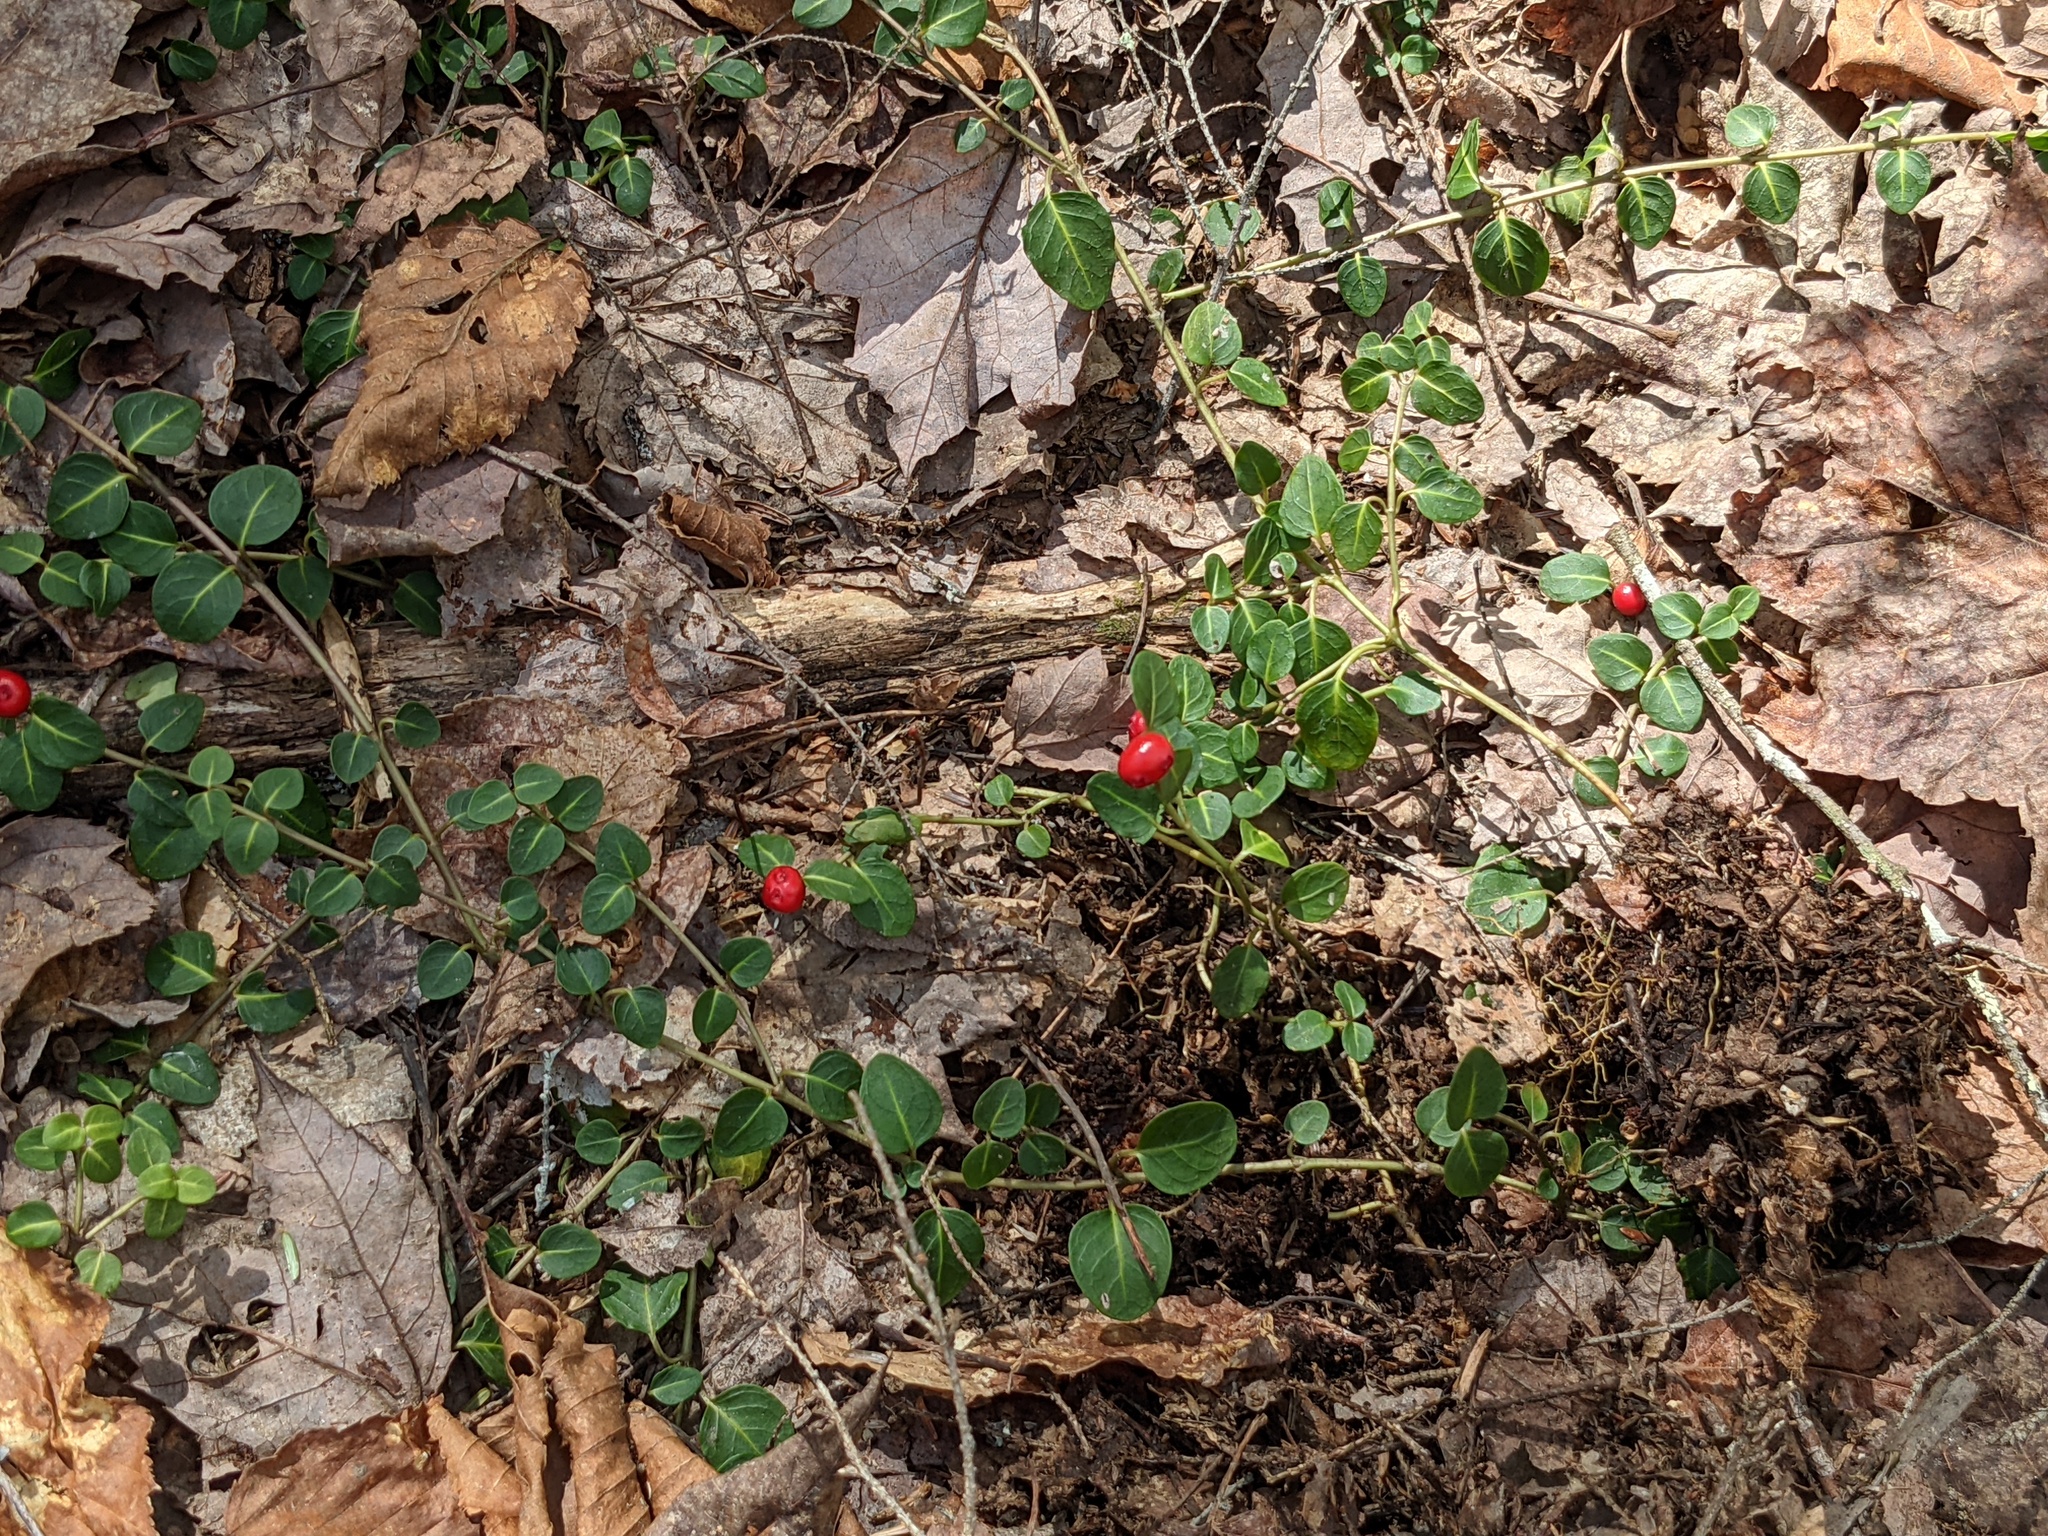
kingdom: Plantae
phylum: Tracheophyta
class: Magnoliopsida
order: Gentianales
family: Rubiaceae
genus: Mitchella
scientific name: Mitchella repens
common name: Partridge-berry
